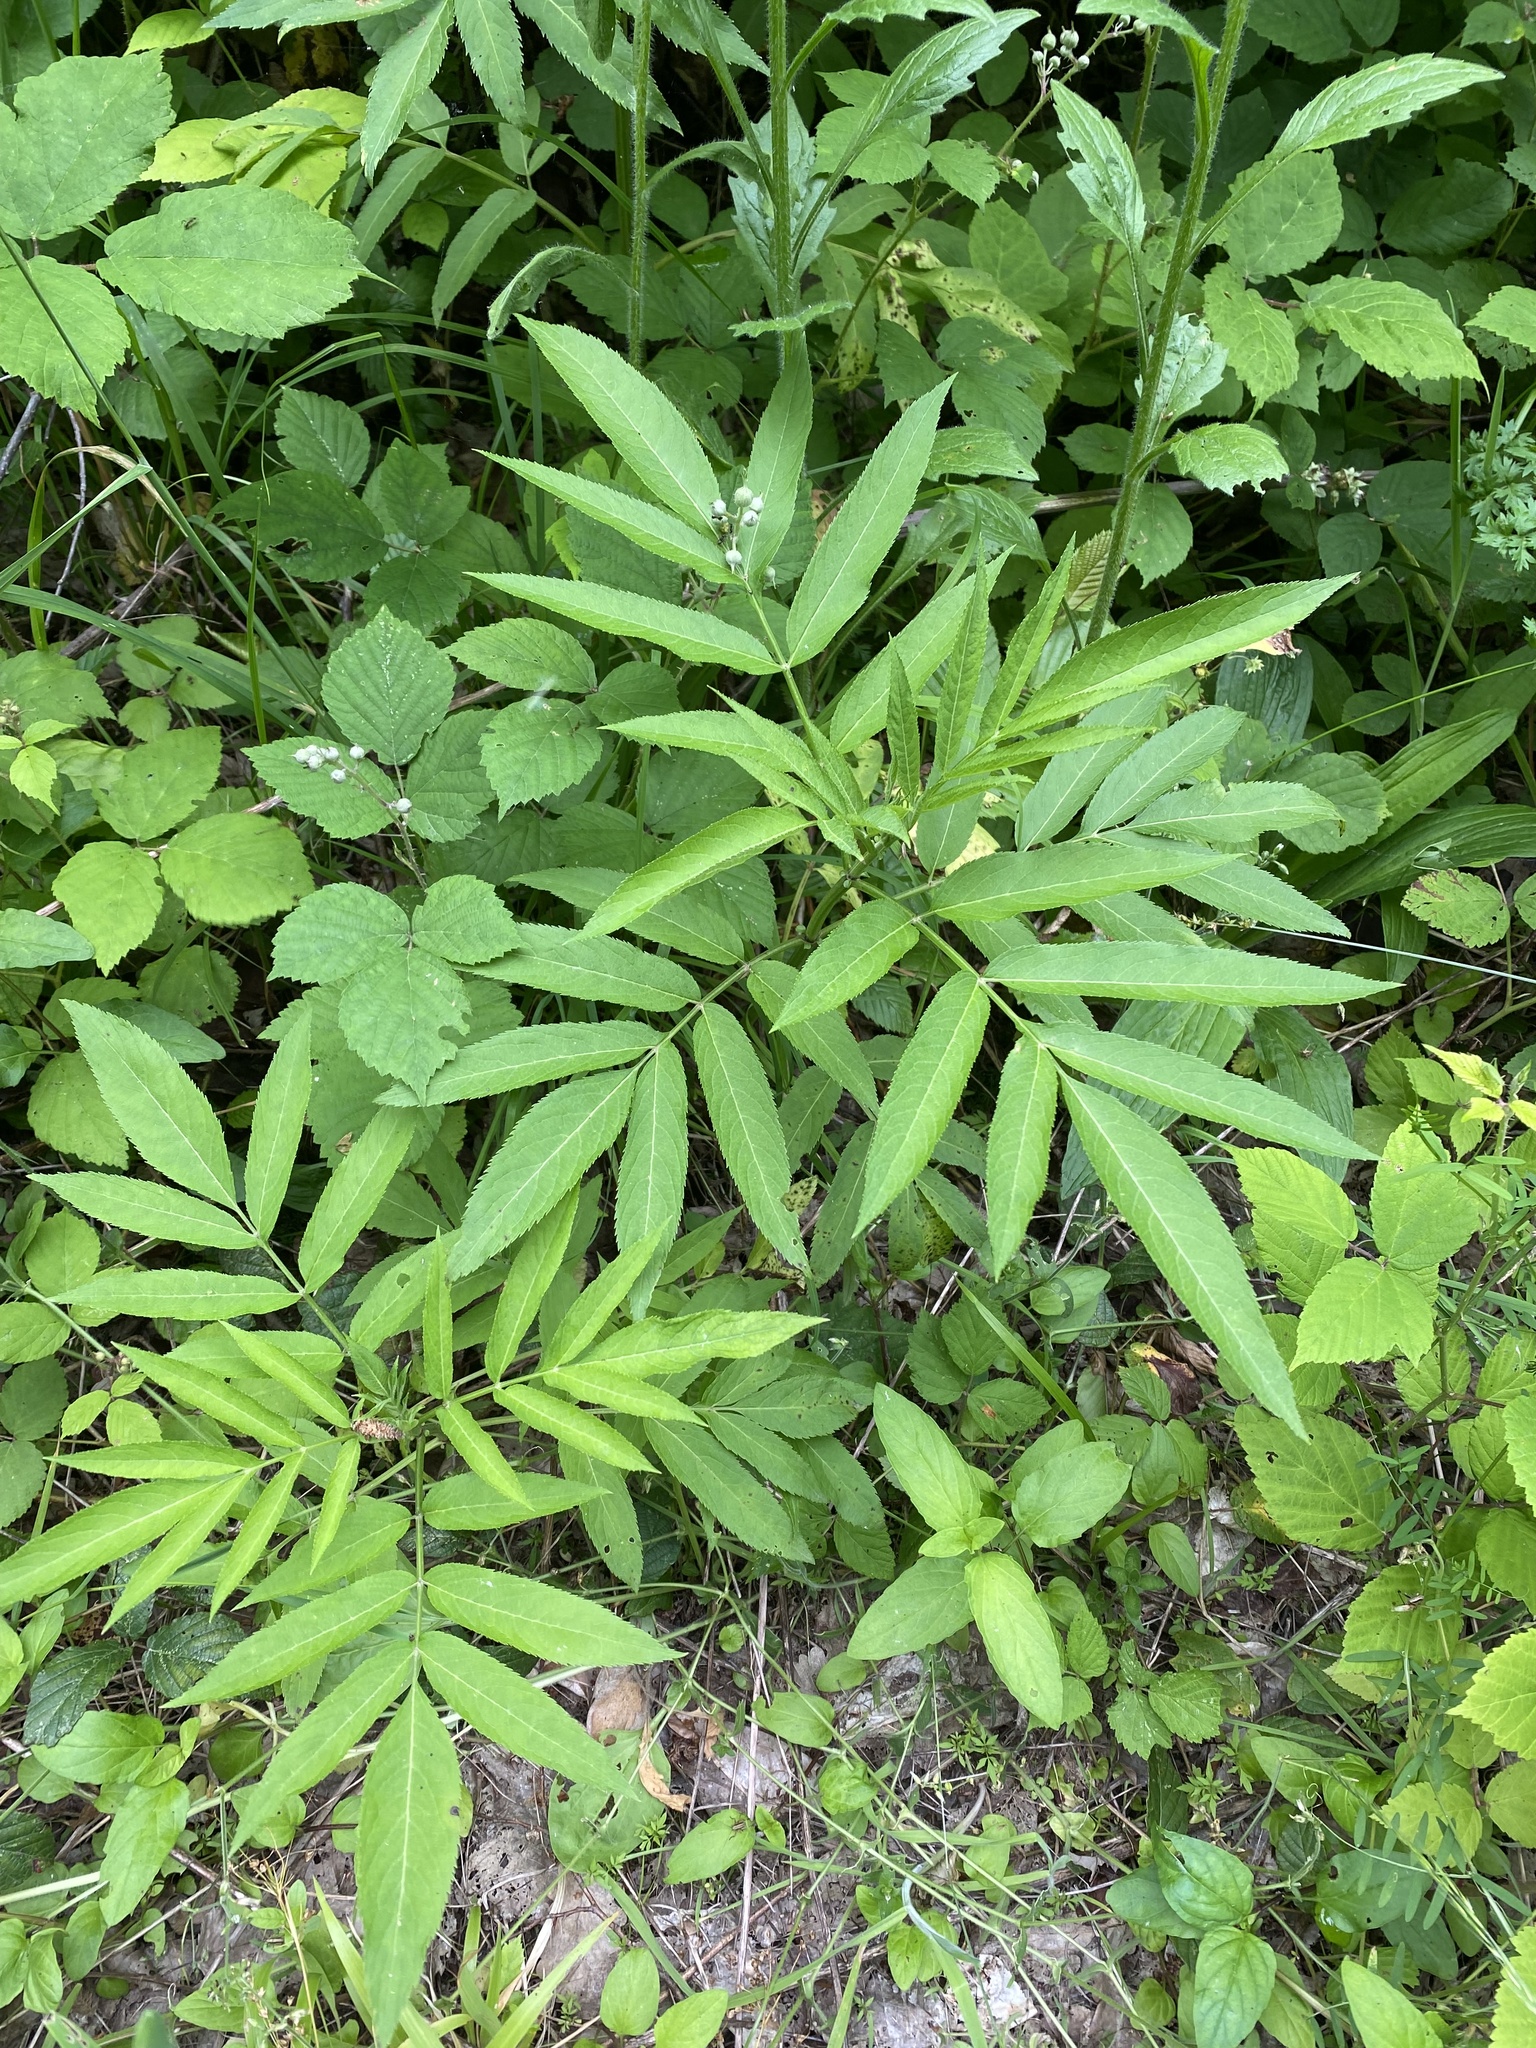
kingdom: Plantae
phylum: Tracheophyta
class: Magnoliopsida
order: Dipsacales
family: Viburnaceae
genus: Sambucus
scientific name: Sambucus ebulus
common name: Dwarf elder
